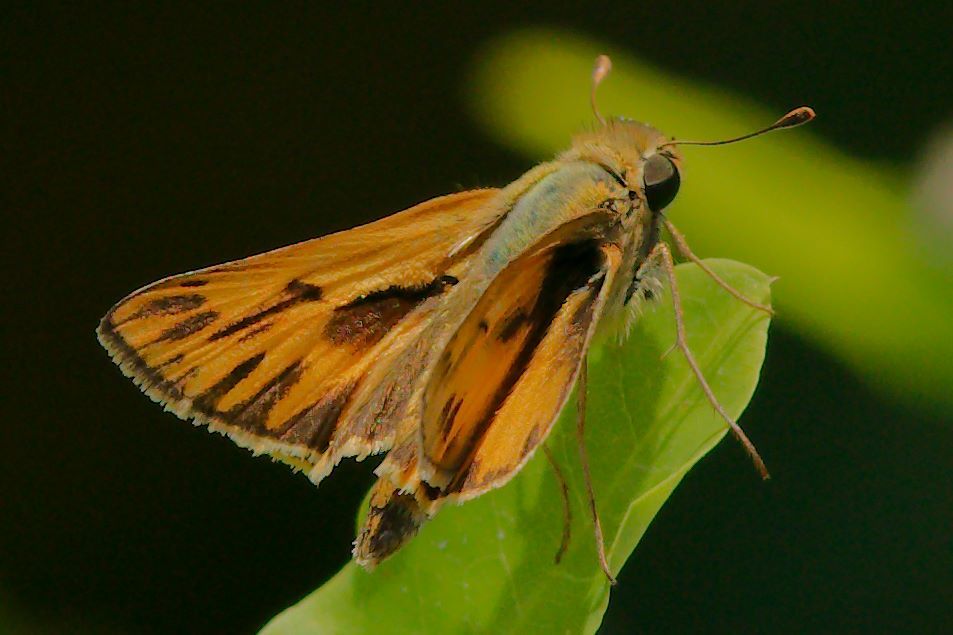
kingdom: Animalia
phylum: Arthropoda
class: Insecta
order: Lepidoptera
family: Hesperiidae
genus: Hylephila
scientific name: Hylephila phyleus
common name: Fiery skipper
